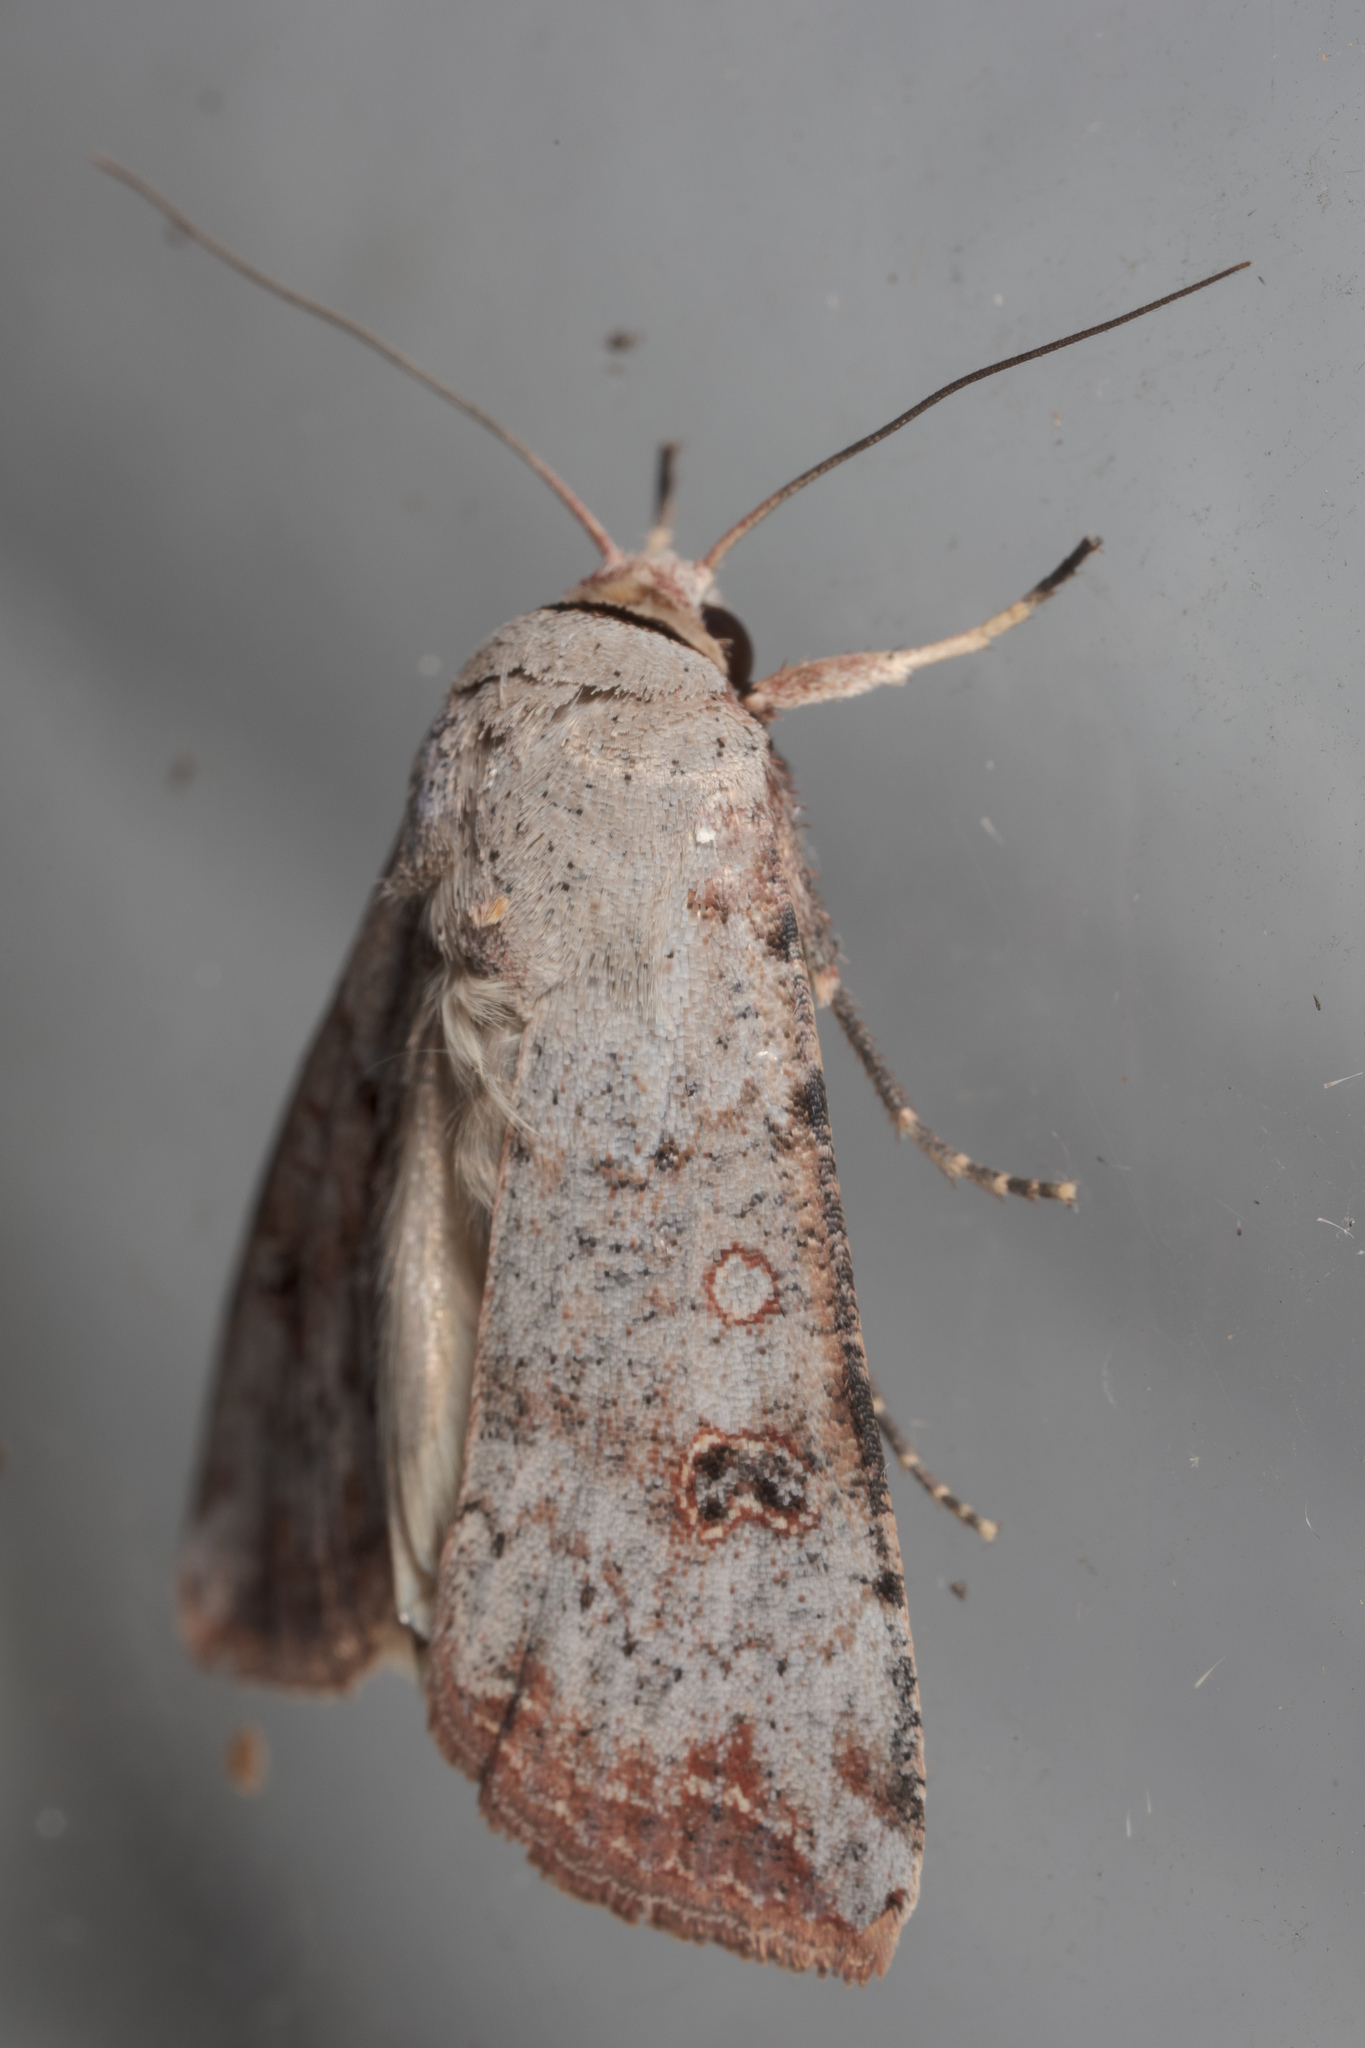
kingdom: Animalia
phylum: Arthropoda
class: Insecta
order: Lepidoptera
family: Noctuidae
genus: Anicla
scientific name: Anicla infecta
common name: Green cutworm
